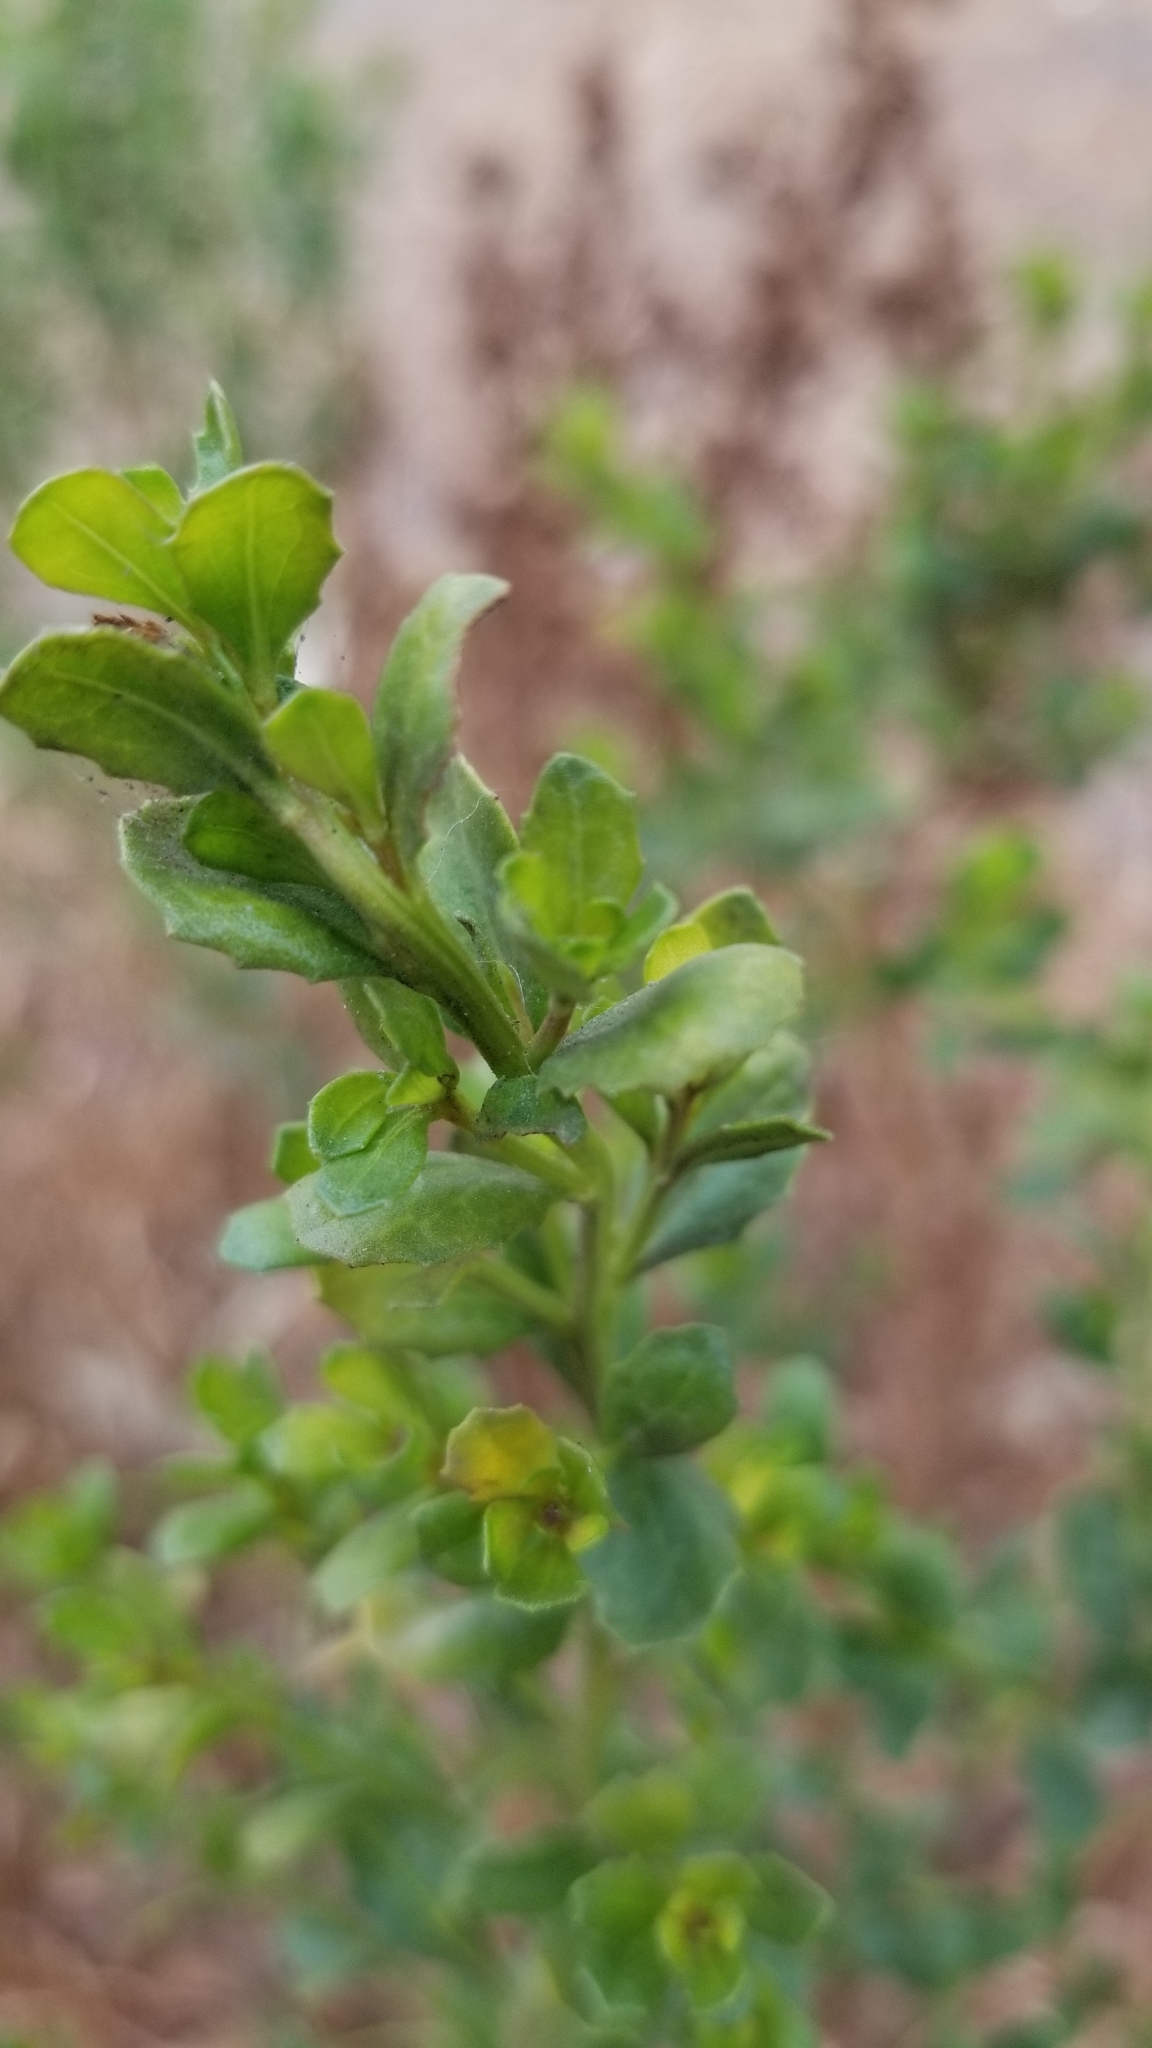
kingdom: Plantae
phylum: Tracheophyta
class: Magnoliopsida
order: Asterales
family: Asteraceae
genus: Baccharis
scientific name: Baccharis pilularis
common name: Coyotebrush
